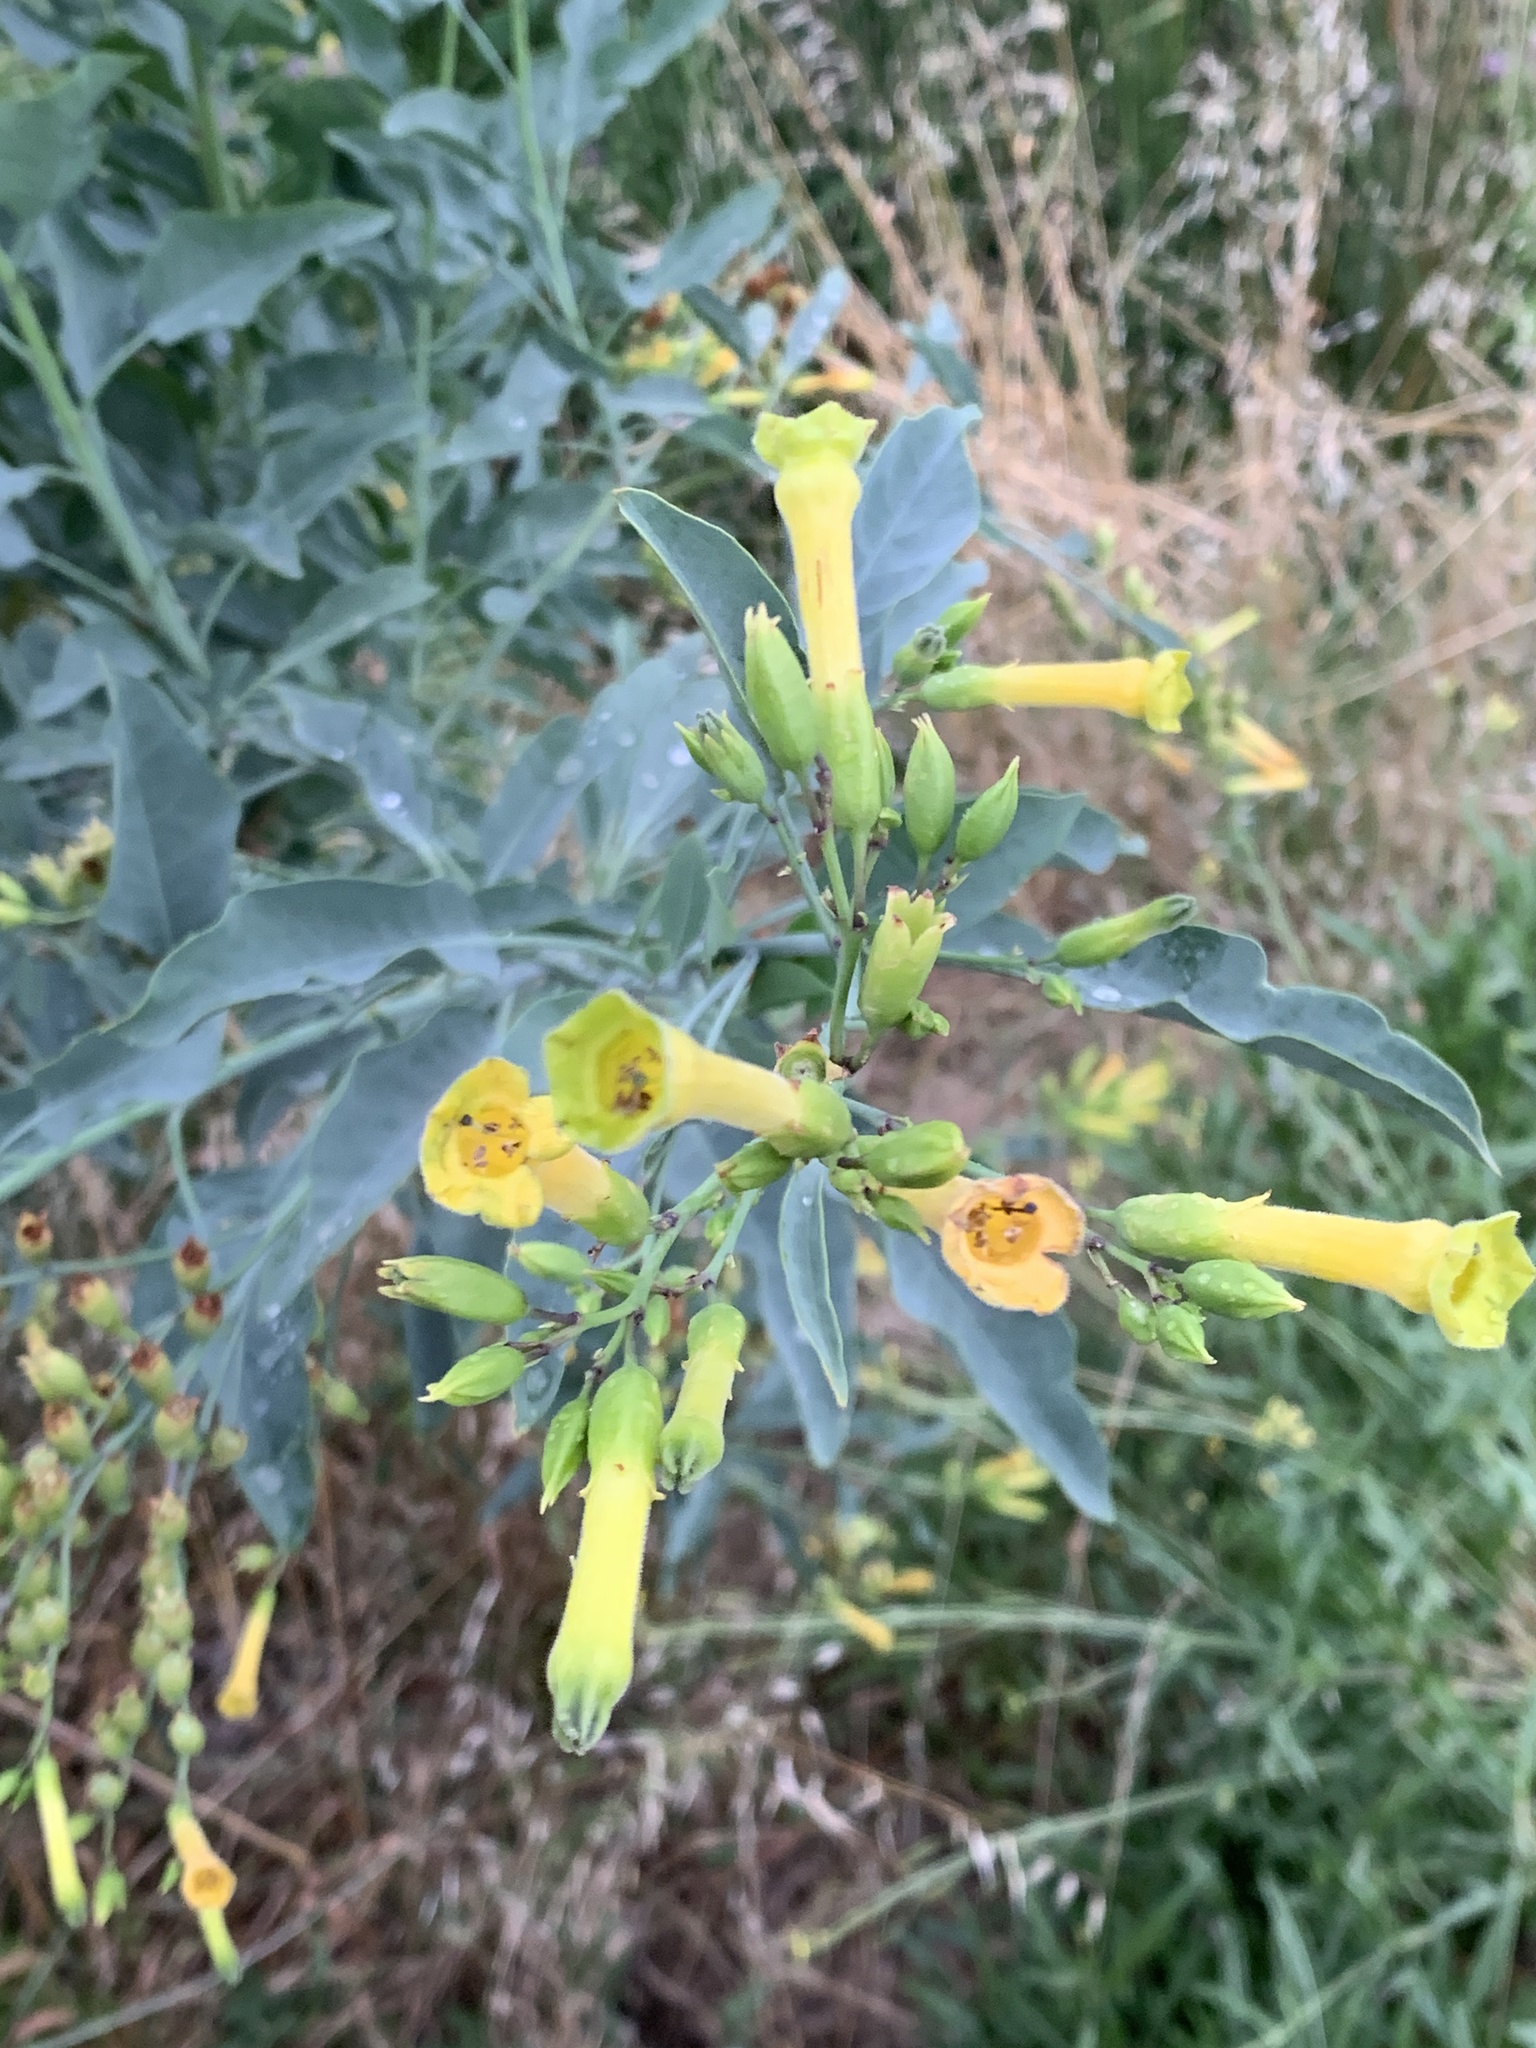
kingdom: Plantae
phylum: Tracheophyta
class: Magnoliopsida
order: Solanales
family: Solanaceae
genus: Nicotiana
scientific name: Nicotiana glauca
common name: Tree tobacco
